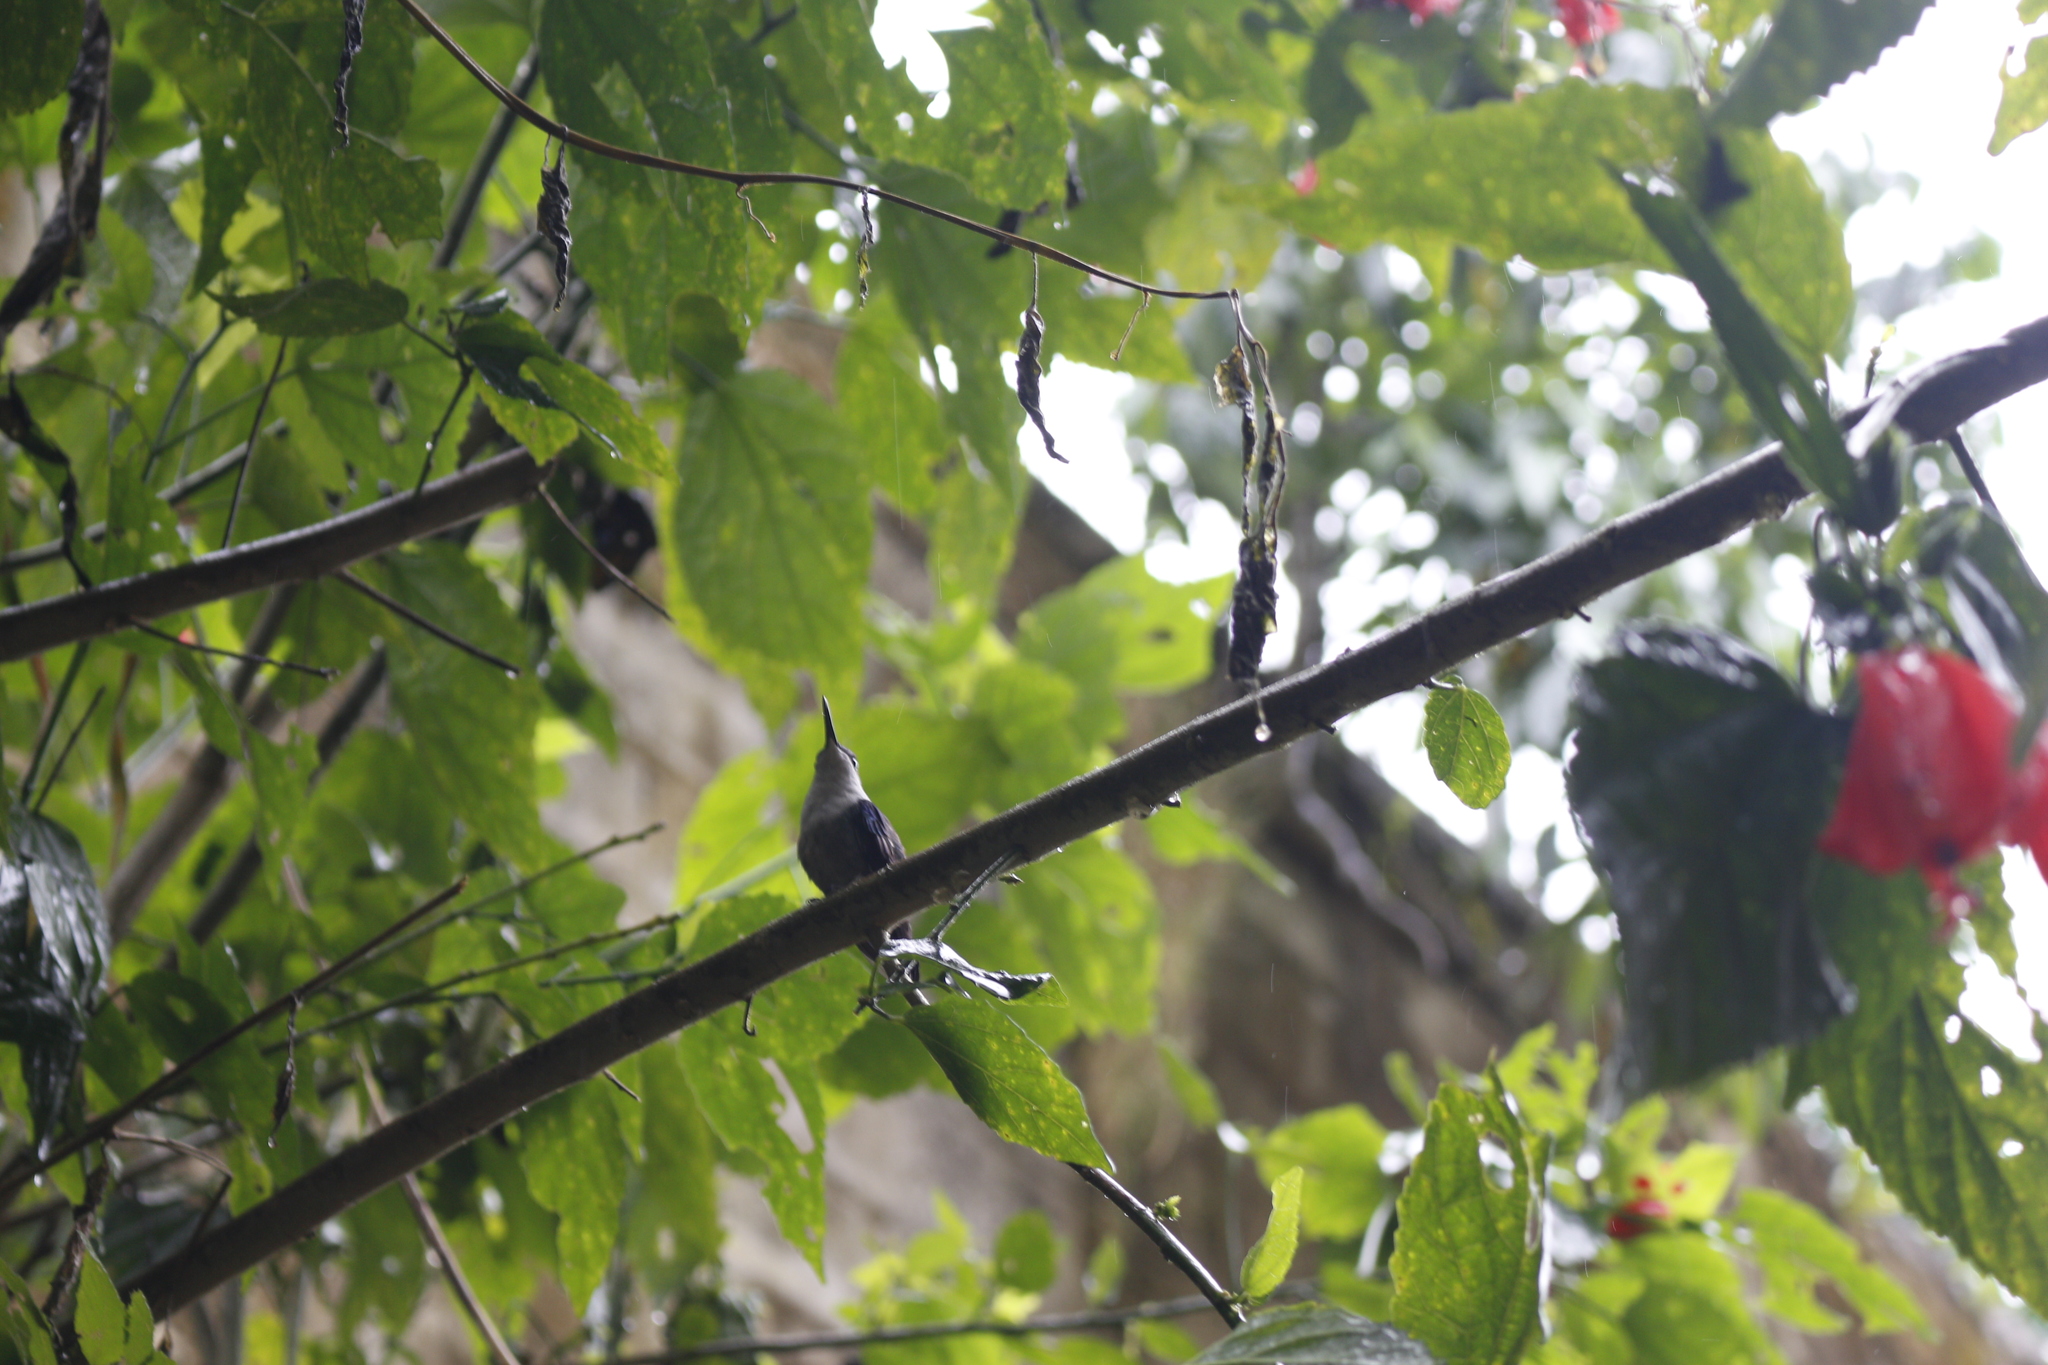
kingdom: Animalia
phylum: Chordata
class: Aves
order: Apodiformes
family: Trochilidae
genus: Thalurania
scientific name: Thalurania colombica
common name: Crowned woodnymph
